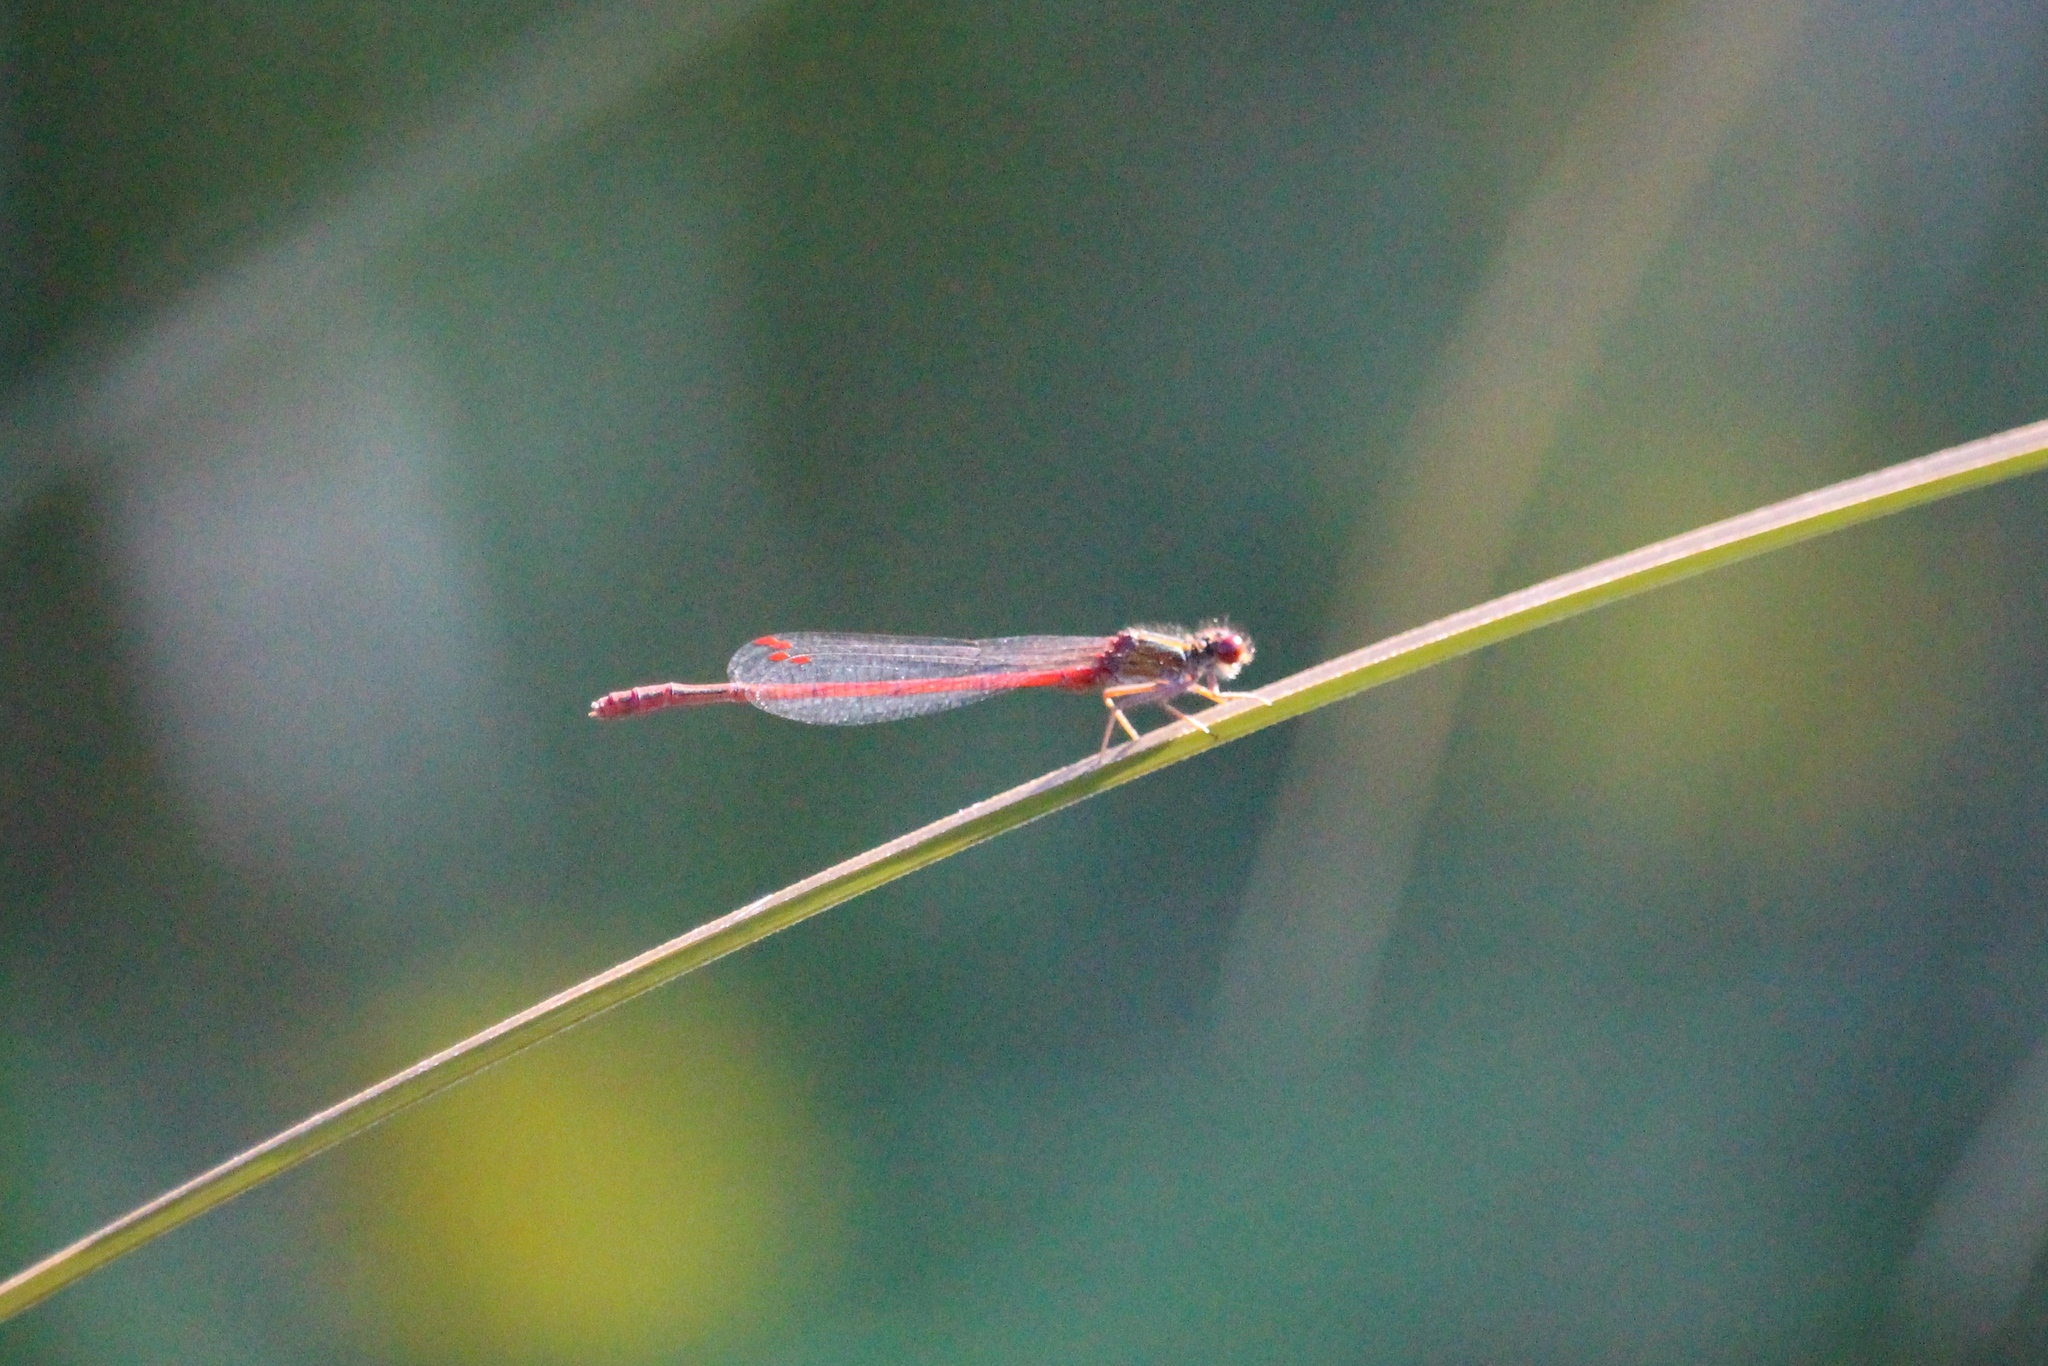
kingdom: Animalia
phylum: Arthropoda
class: Insecta
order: Odonata
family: Coenagrionidae
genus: Xanthocnemis
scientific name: Xanthocnemis zealandica
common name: Common redcoat damselfly
